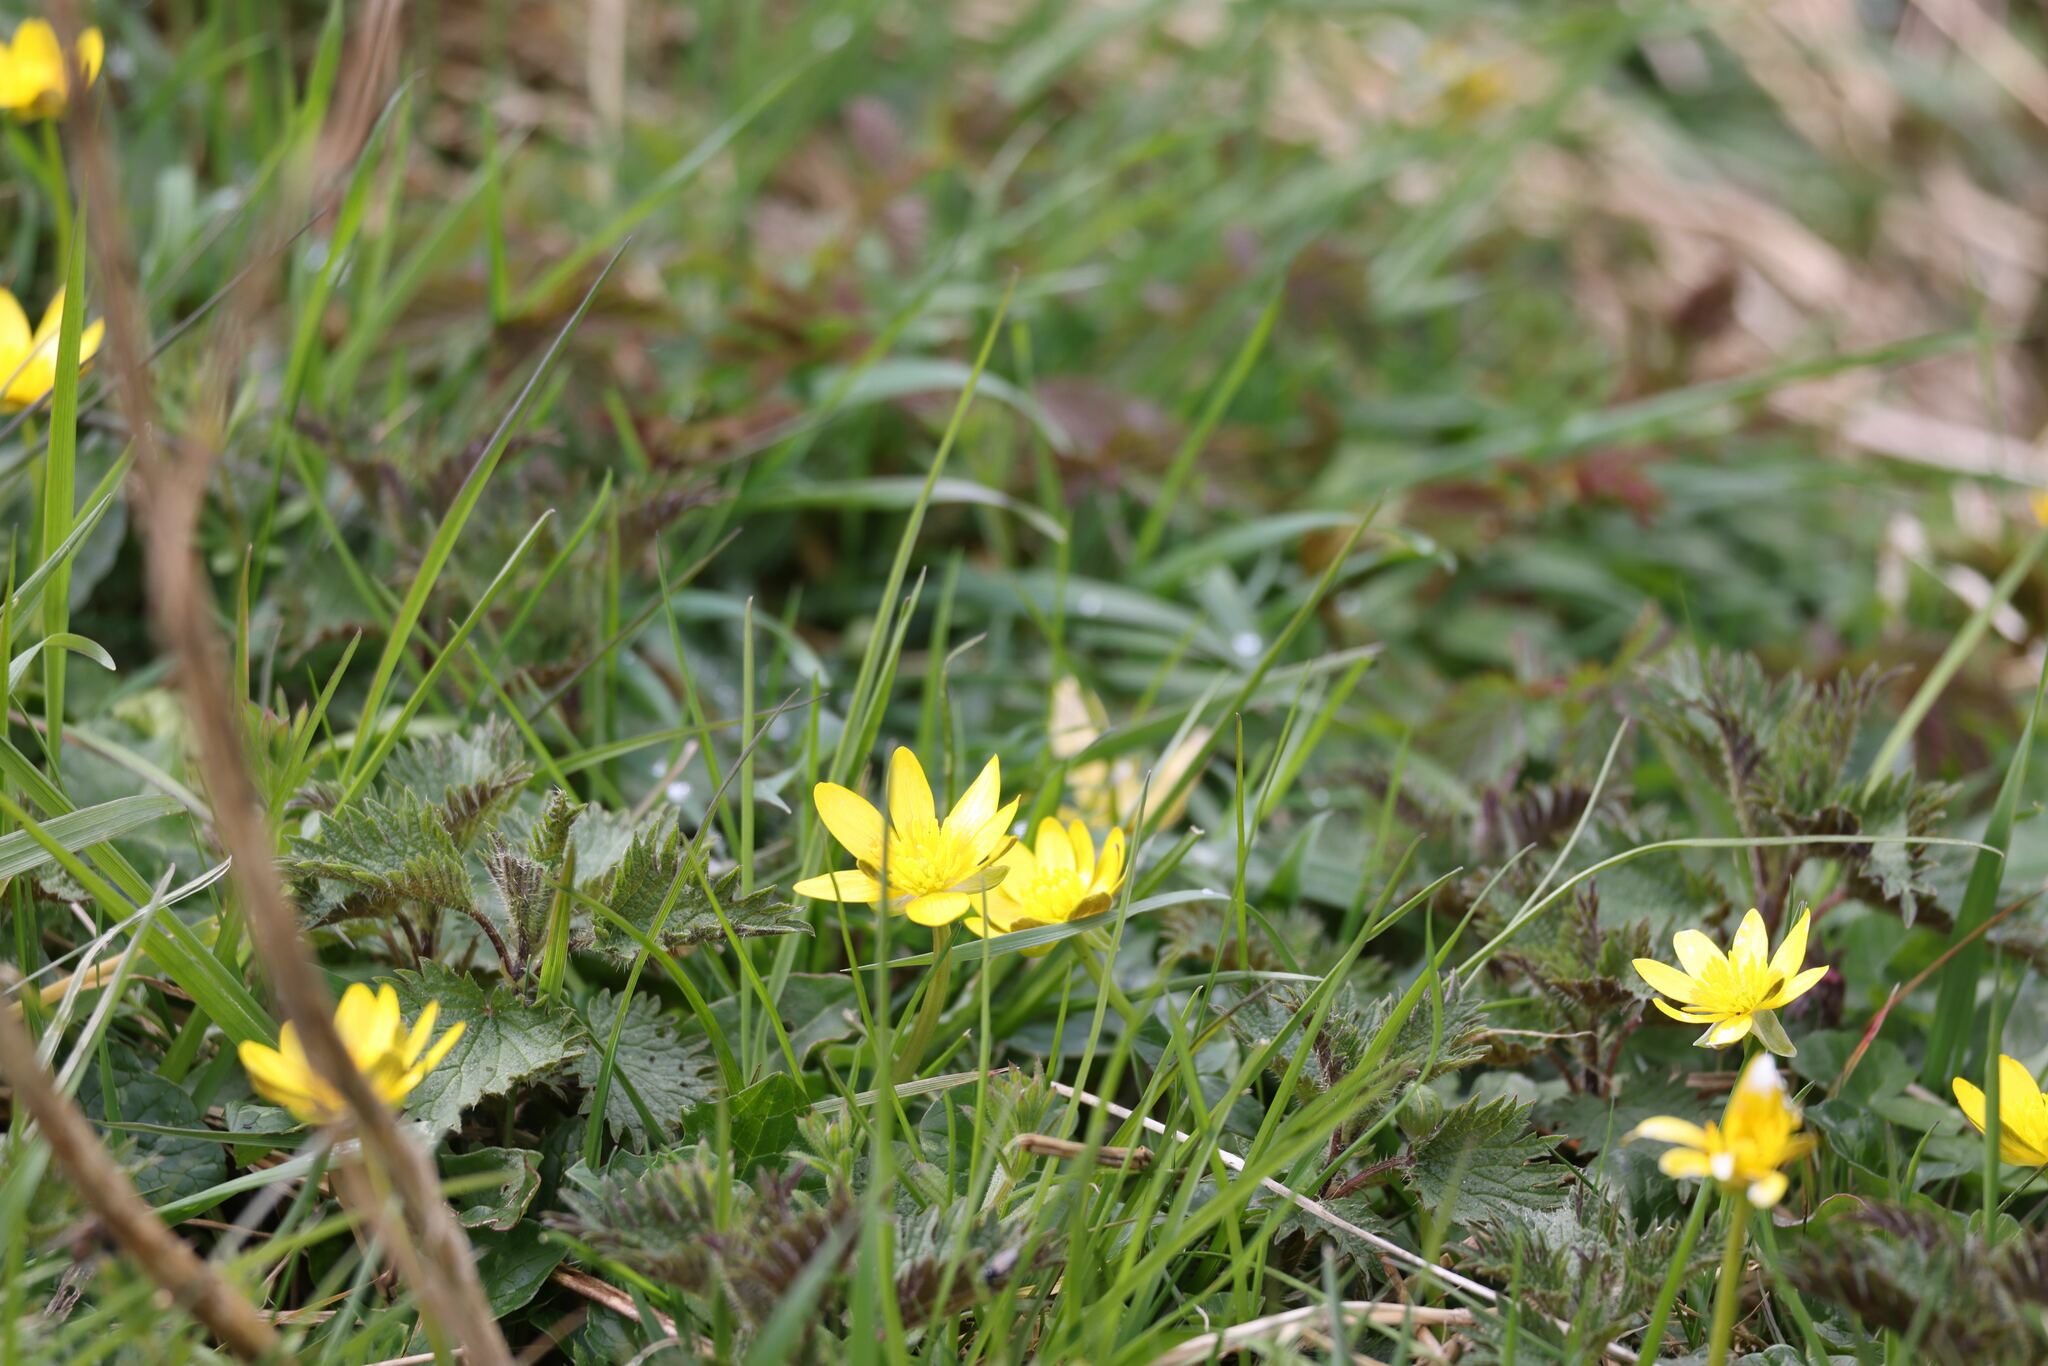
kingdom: Plantae
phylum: Tracheophyta
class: Magnoliopsida
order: Ranunculales
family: Ranunculaceae
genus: Ficaria
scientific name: Ficaria verna
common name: Lesser celandine
